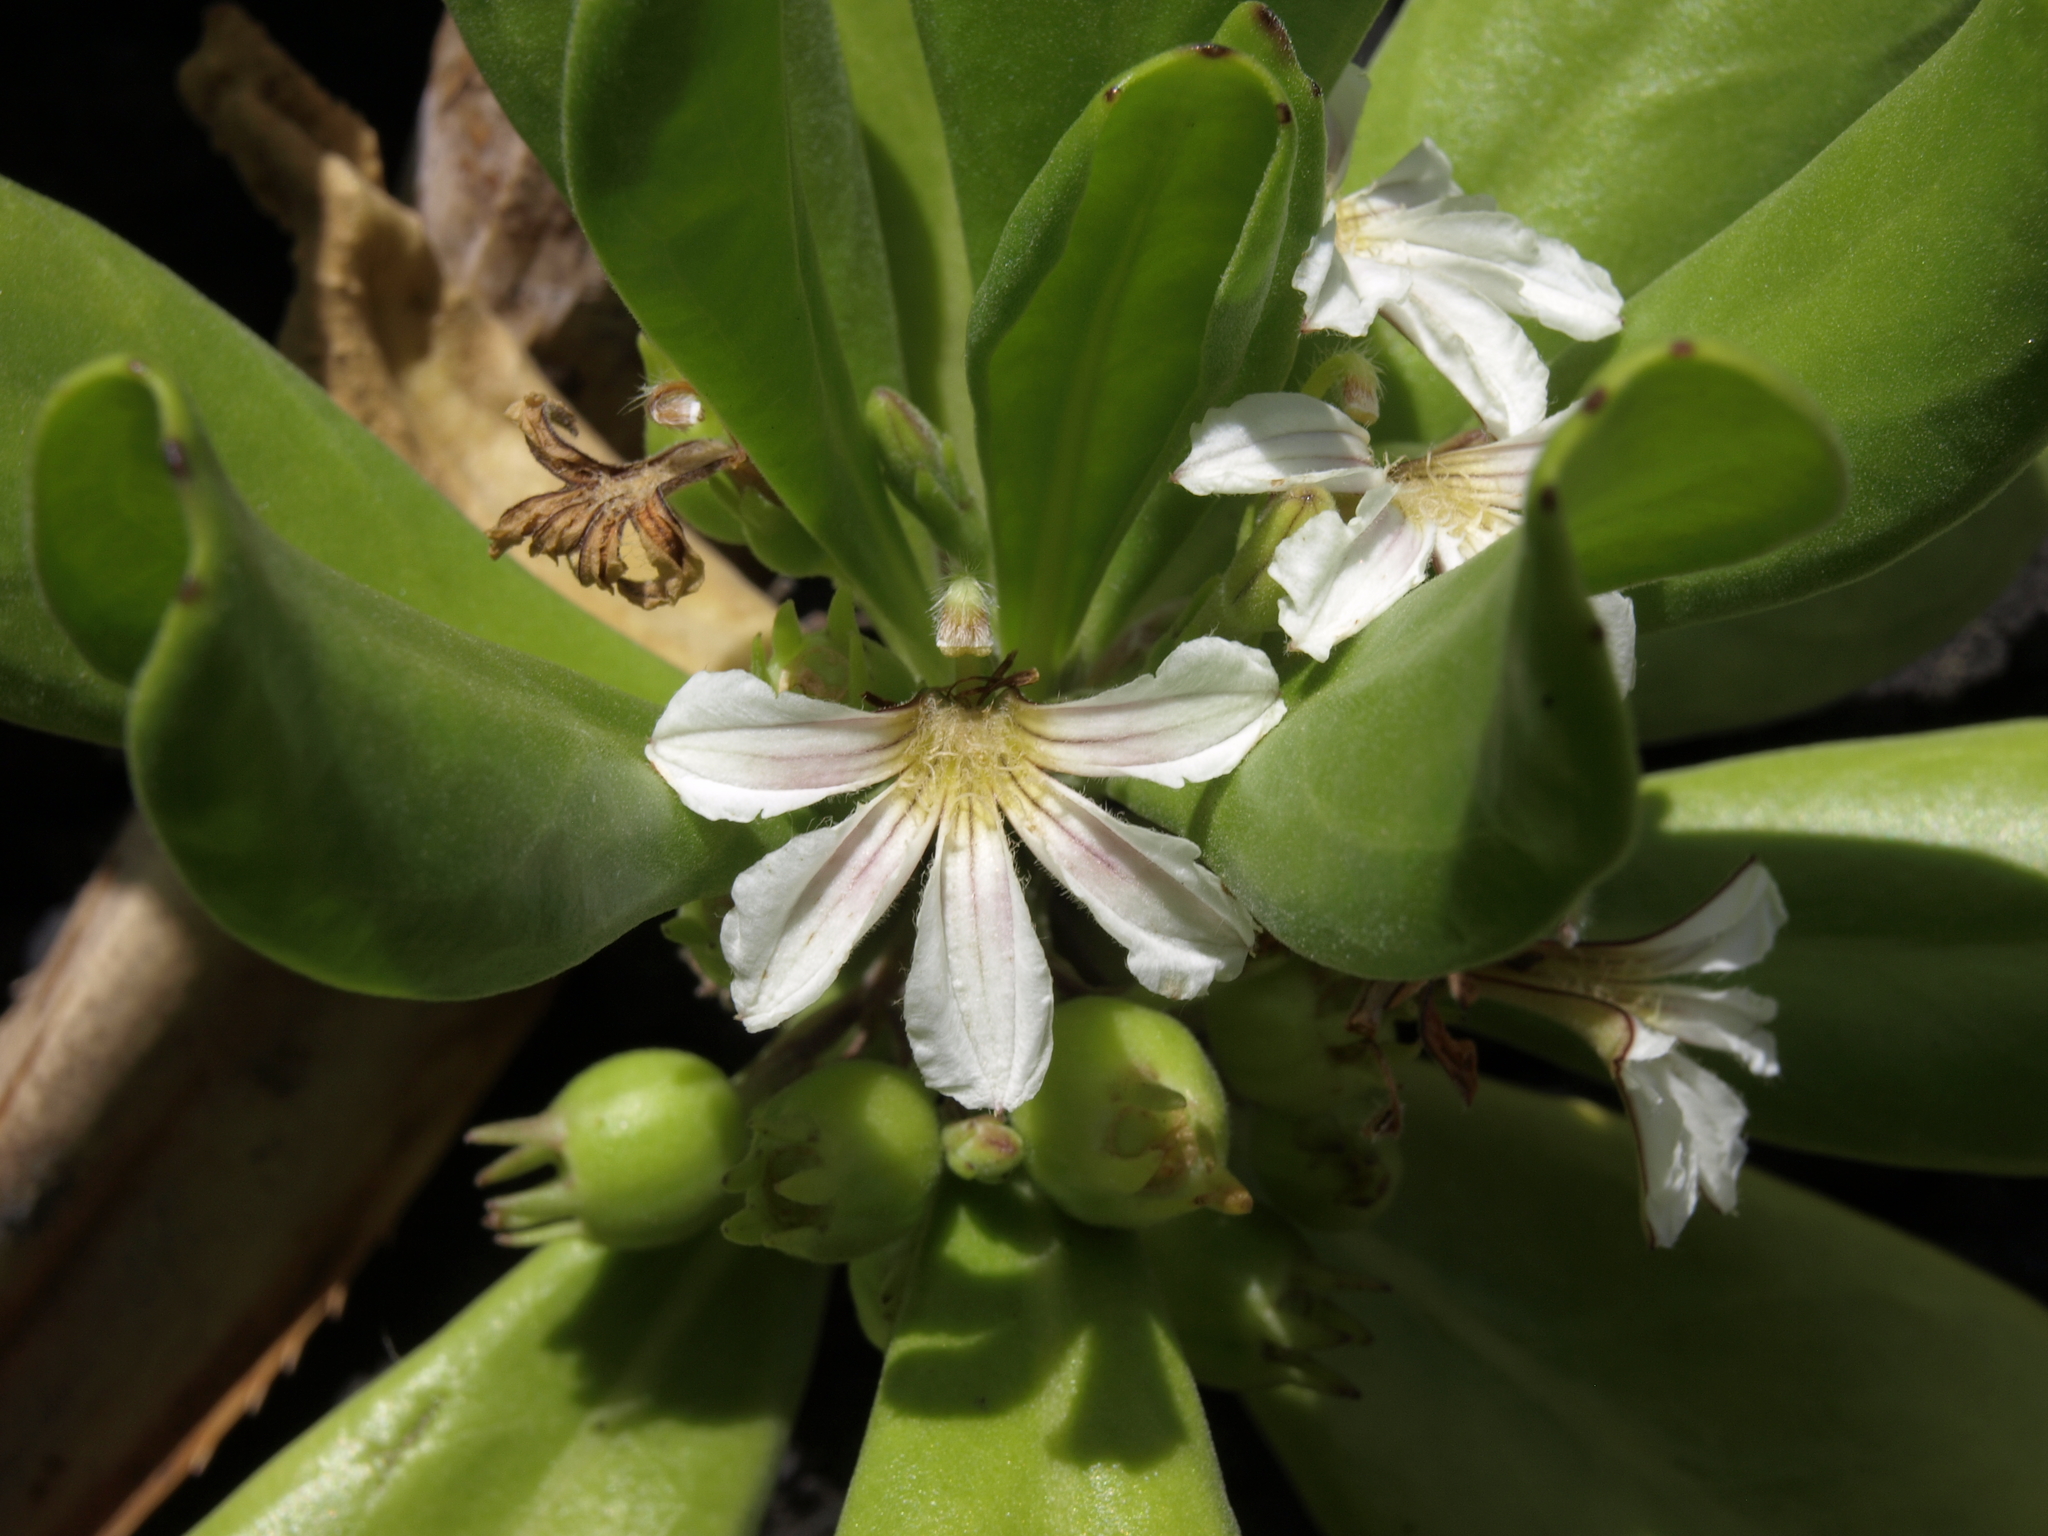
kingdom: Plantae
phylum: Tracheophyta
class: Magnoliopsida
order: Asterales
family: Goodeniaceae
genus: Scaevola
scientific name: Scaevola taccada
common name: Sea lettucetree
